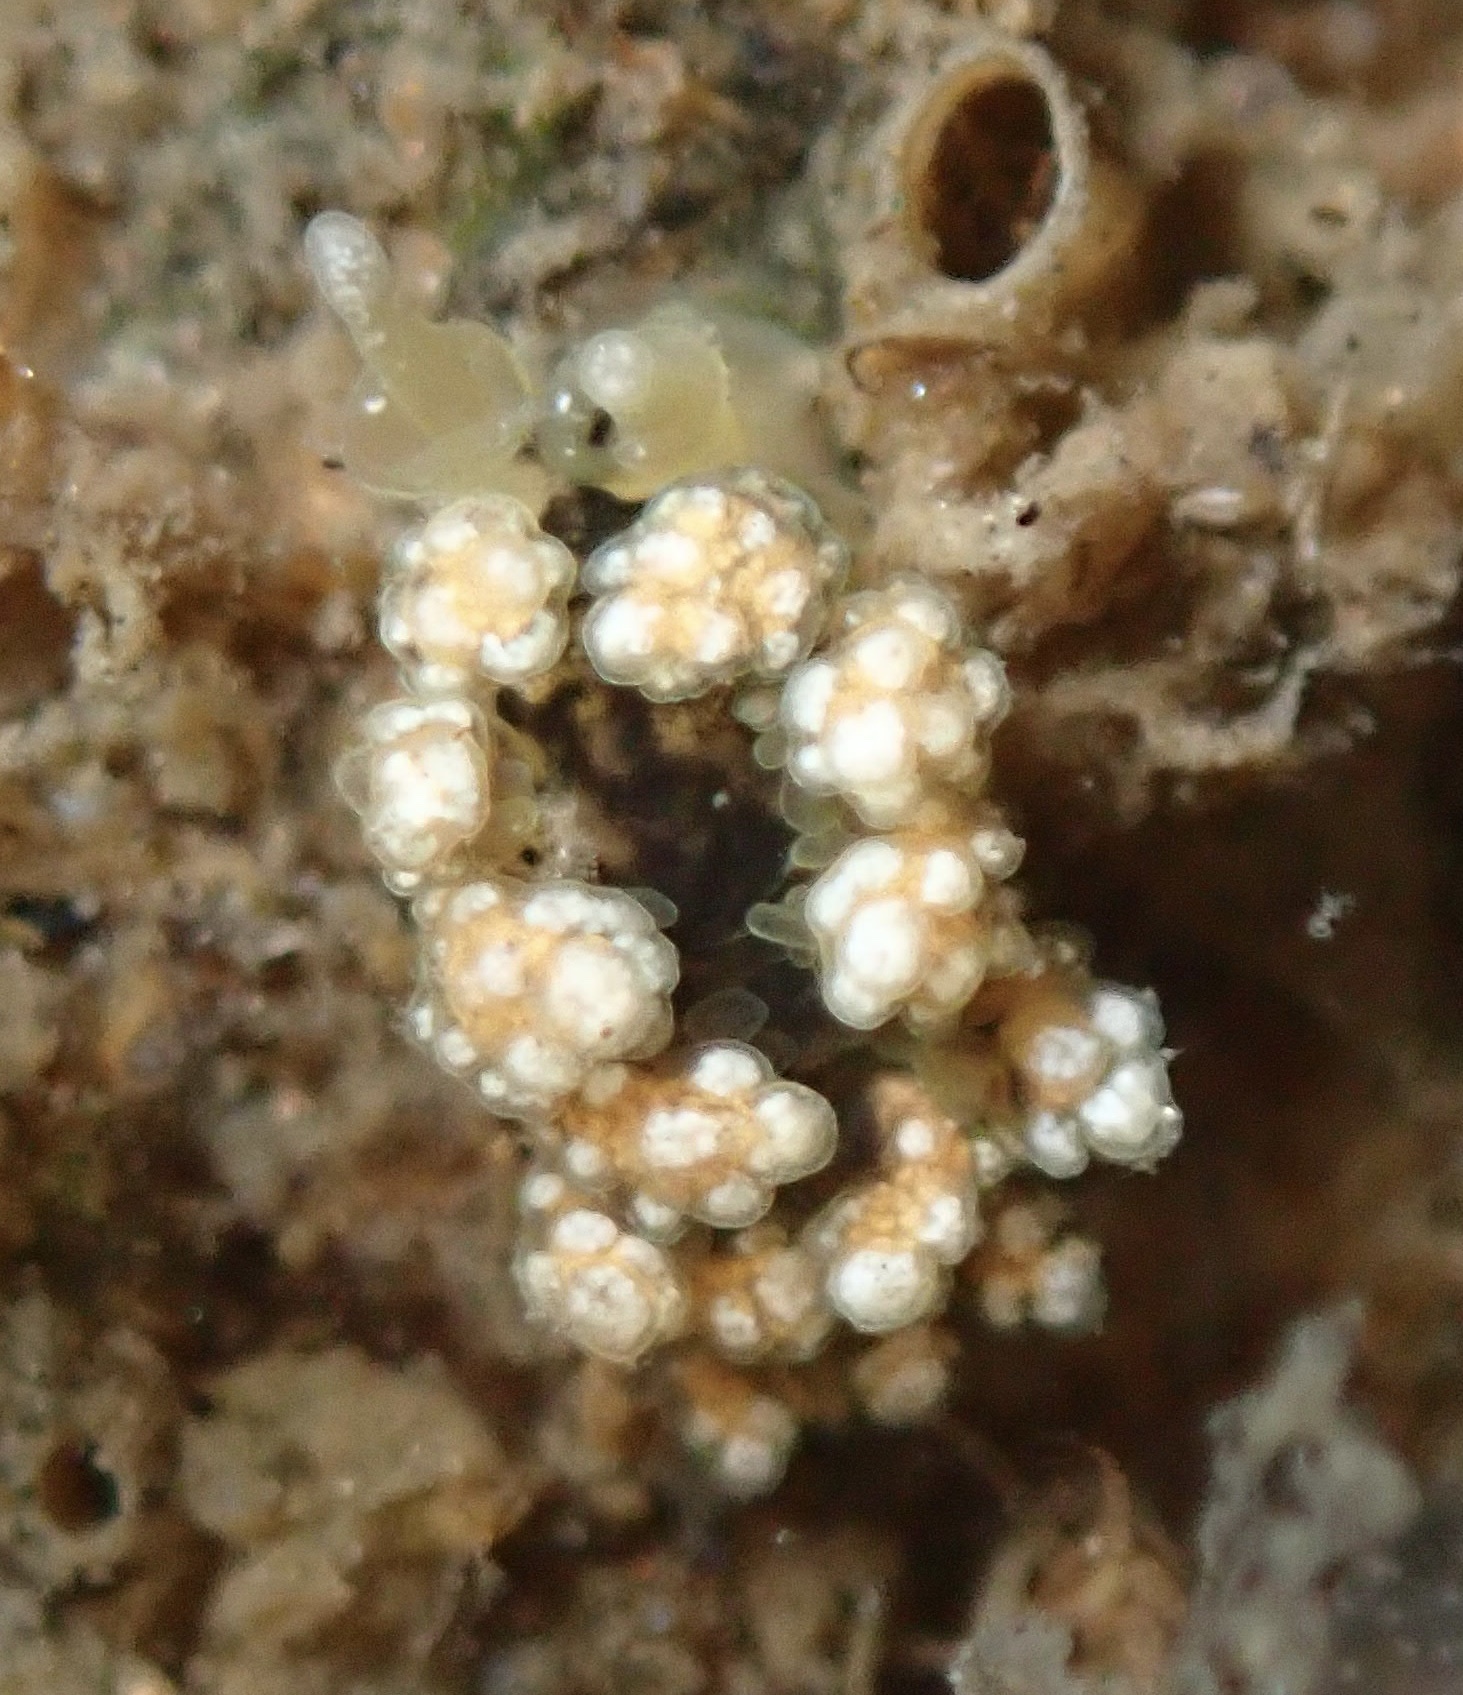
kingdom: Animalia
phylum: Mollusca
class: Gastropoda
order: Nudibranchia
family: Dotidae
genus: Doto
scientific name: Doto kya
